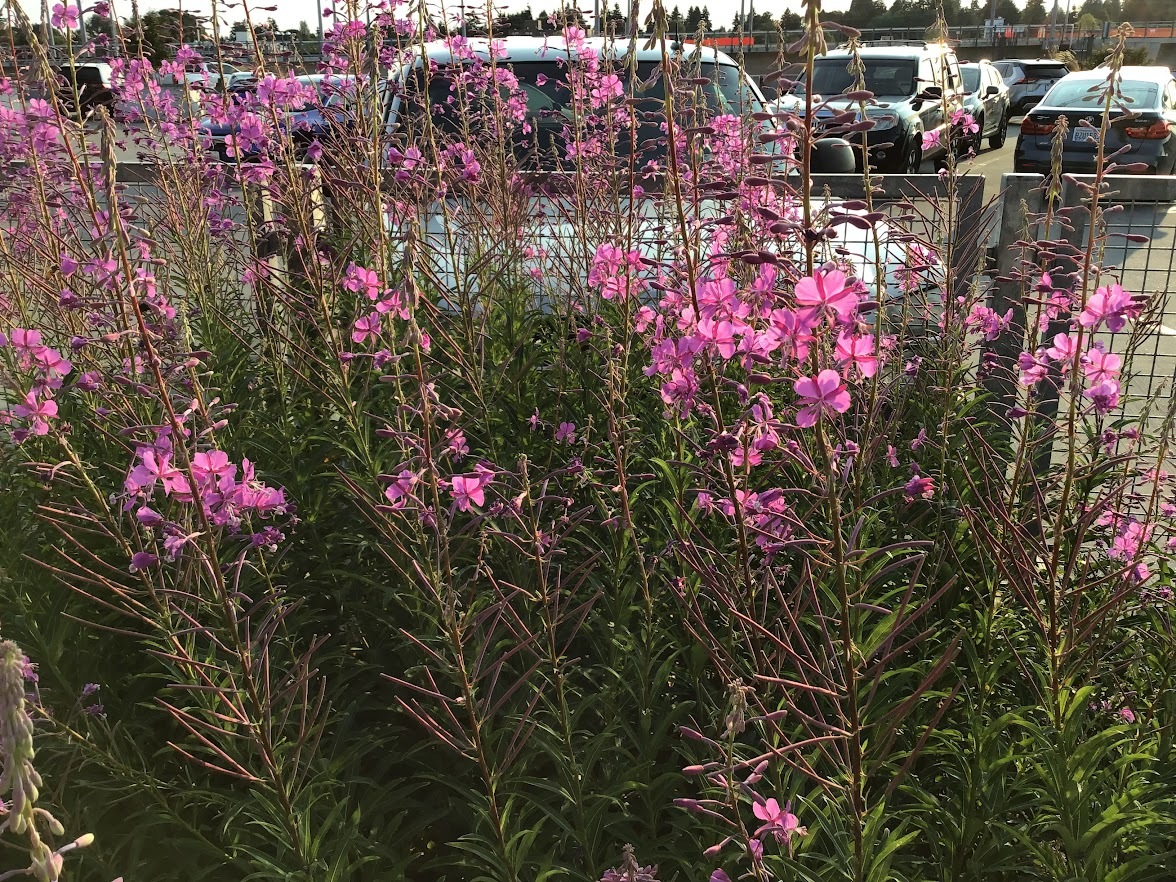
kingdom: Plantae
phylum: Tracheophyta
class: Magnoliopsida
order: Myrtales
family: Onagraceae
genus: Chamaenerion
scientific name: Chamaenerion angustifolium
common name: Fireweed
